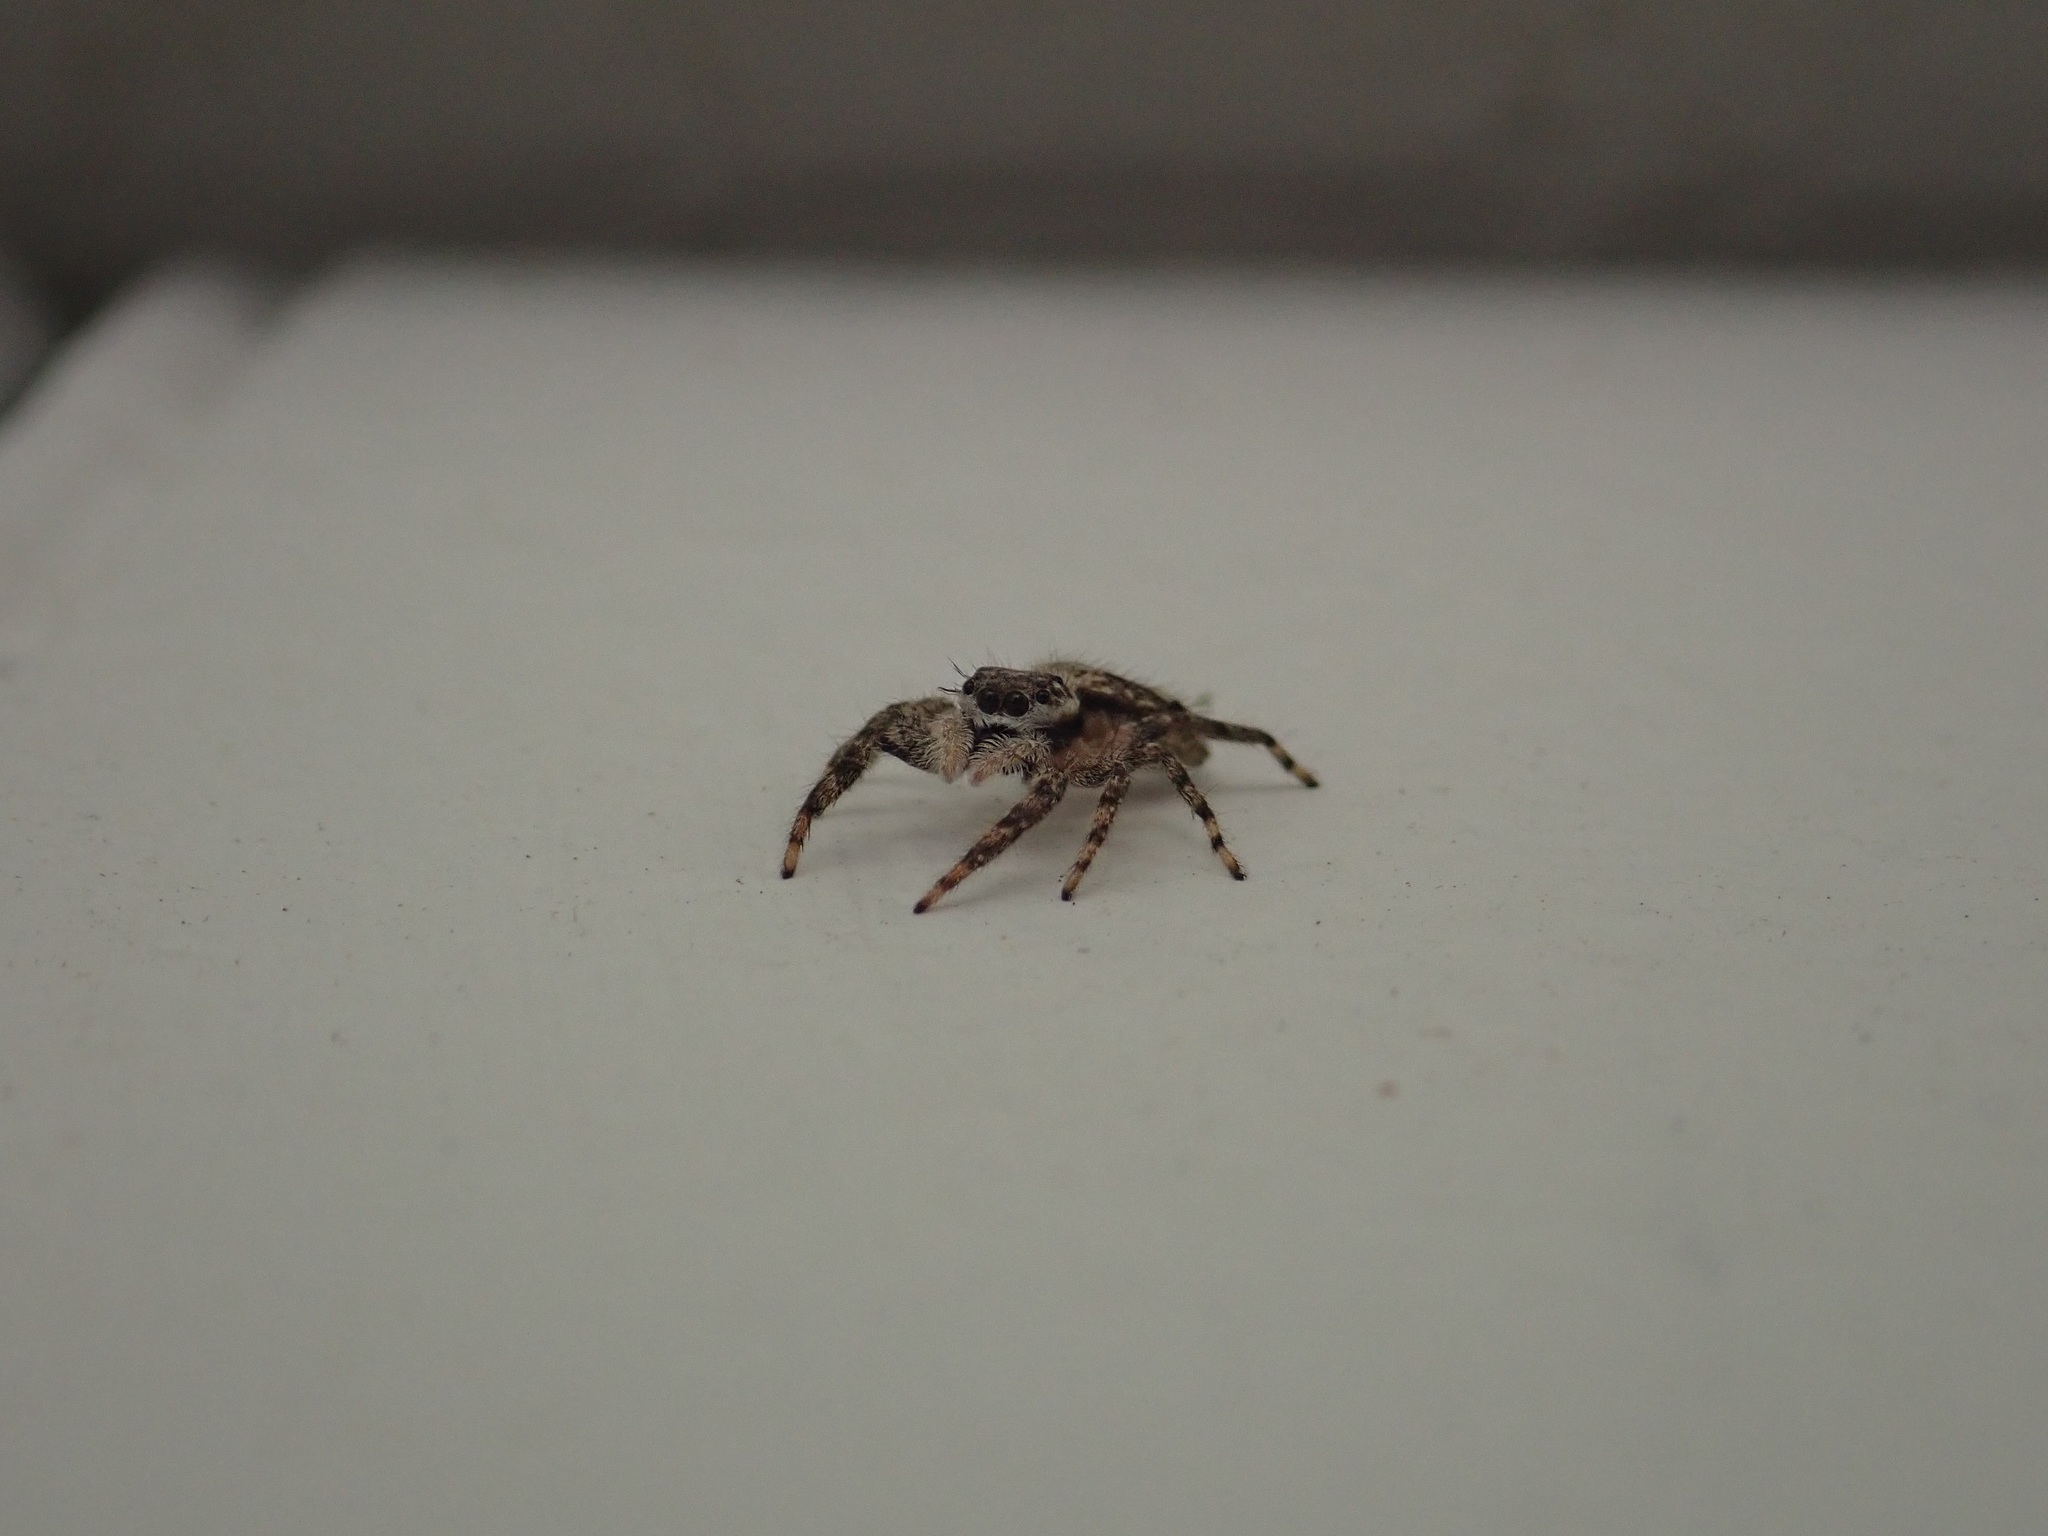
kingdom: Animalia
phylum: Arthropoda
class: Arachnida
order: Araneae
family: Salticidae
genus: Platycryptus
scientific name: Platycryptus undatus
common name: Tan jumping spider
